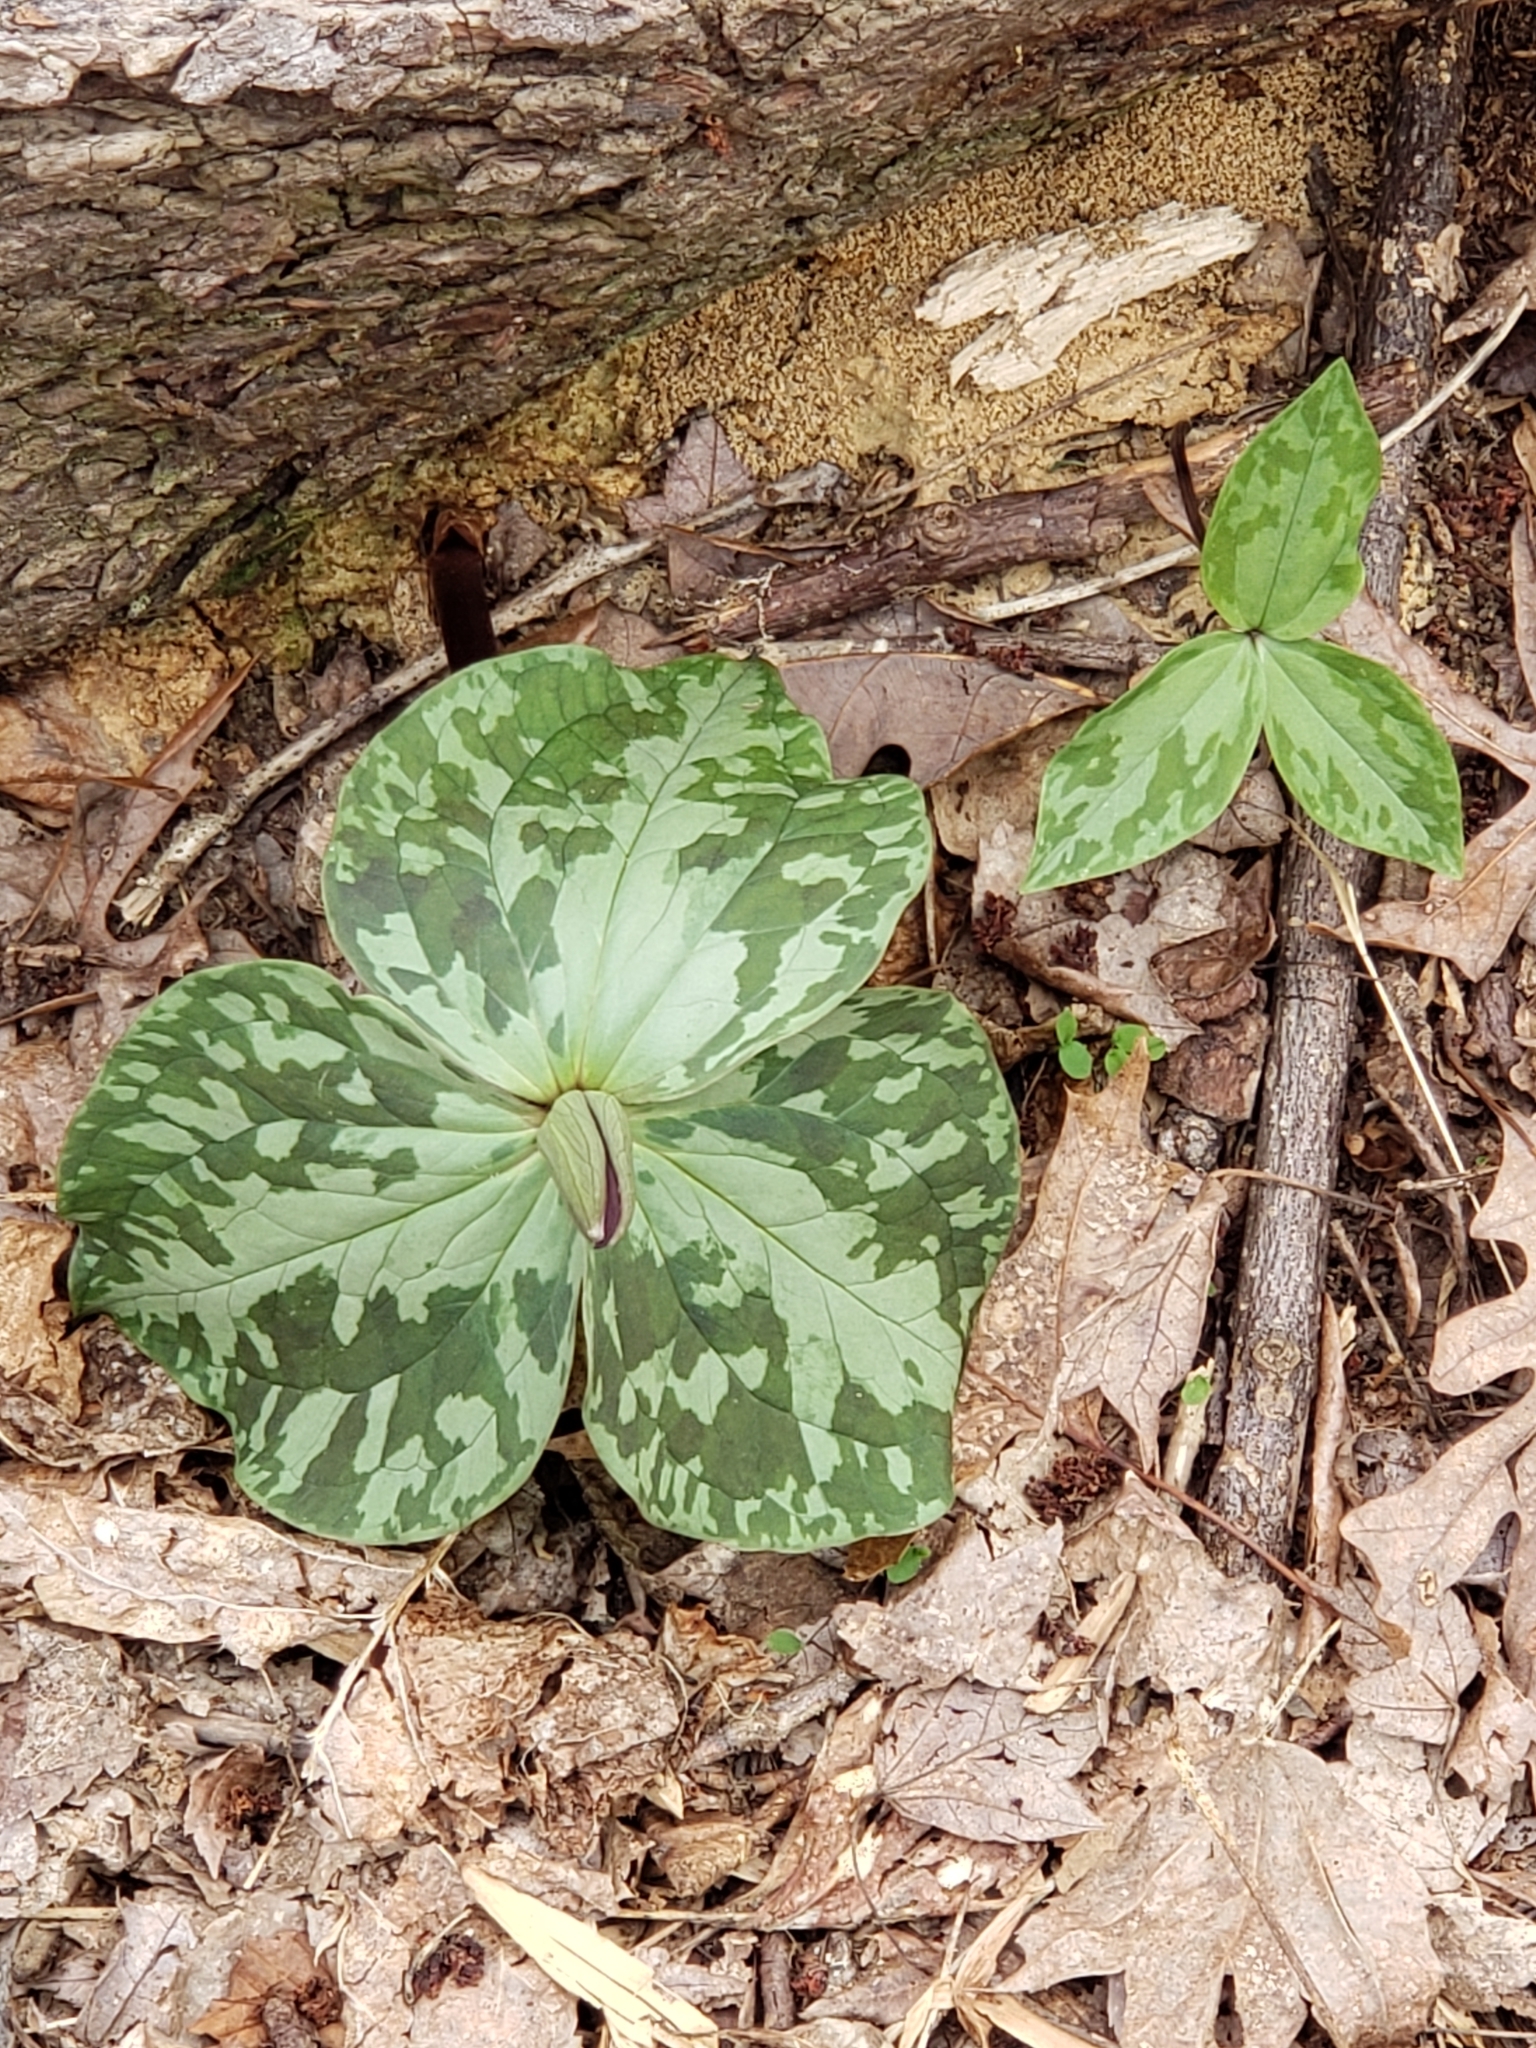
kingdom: Plantae
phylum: Tracheophyta
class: Liliopsida
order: Liliales
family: Melanthiaceae
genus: Trillium
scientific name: Trillium cuneatum
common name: Cuneate trillium
